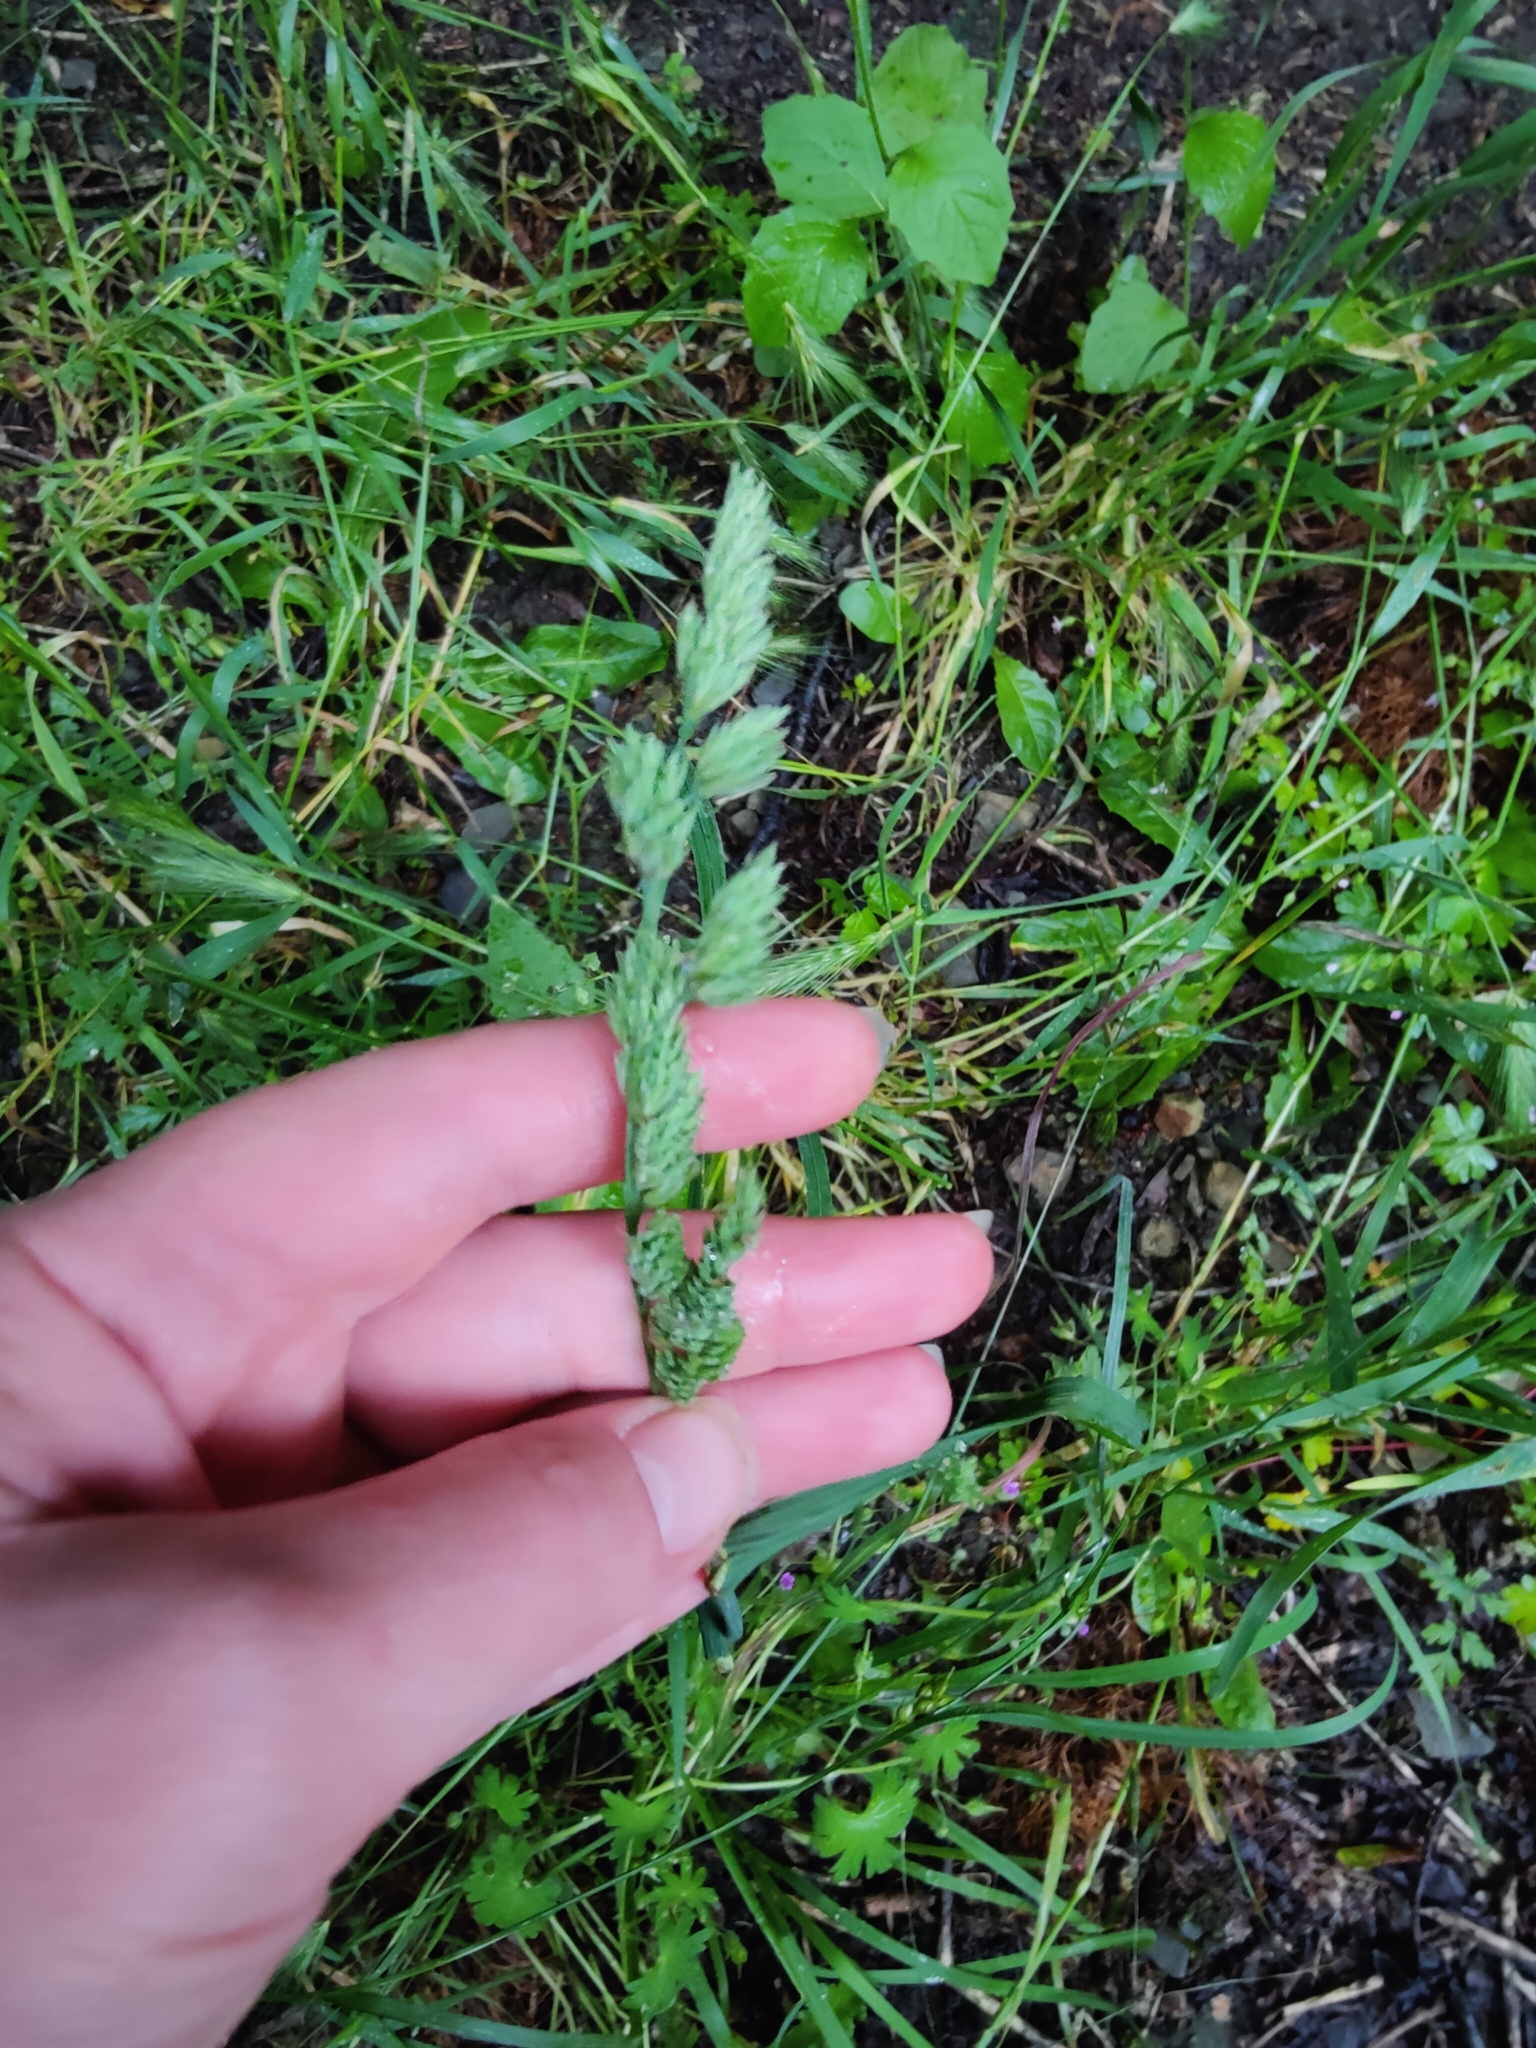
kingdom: Plantae
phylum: Tracheophyta
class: Liliopsida
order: Poales
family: Poaceae
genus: Dactylis
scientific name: Dactylis glomerata
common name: Orchardgrass
